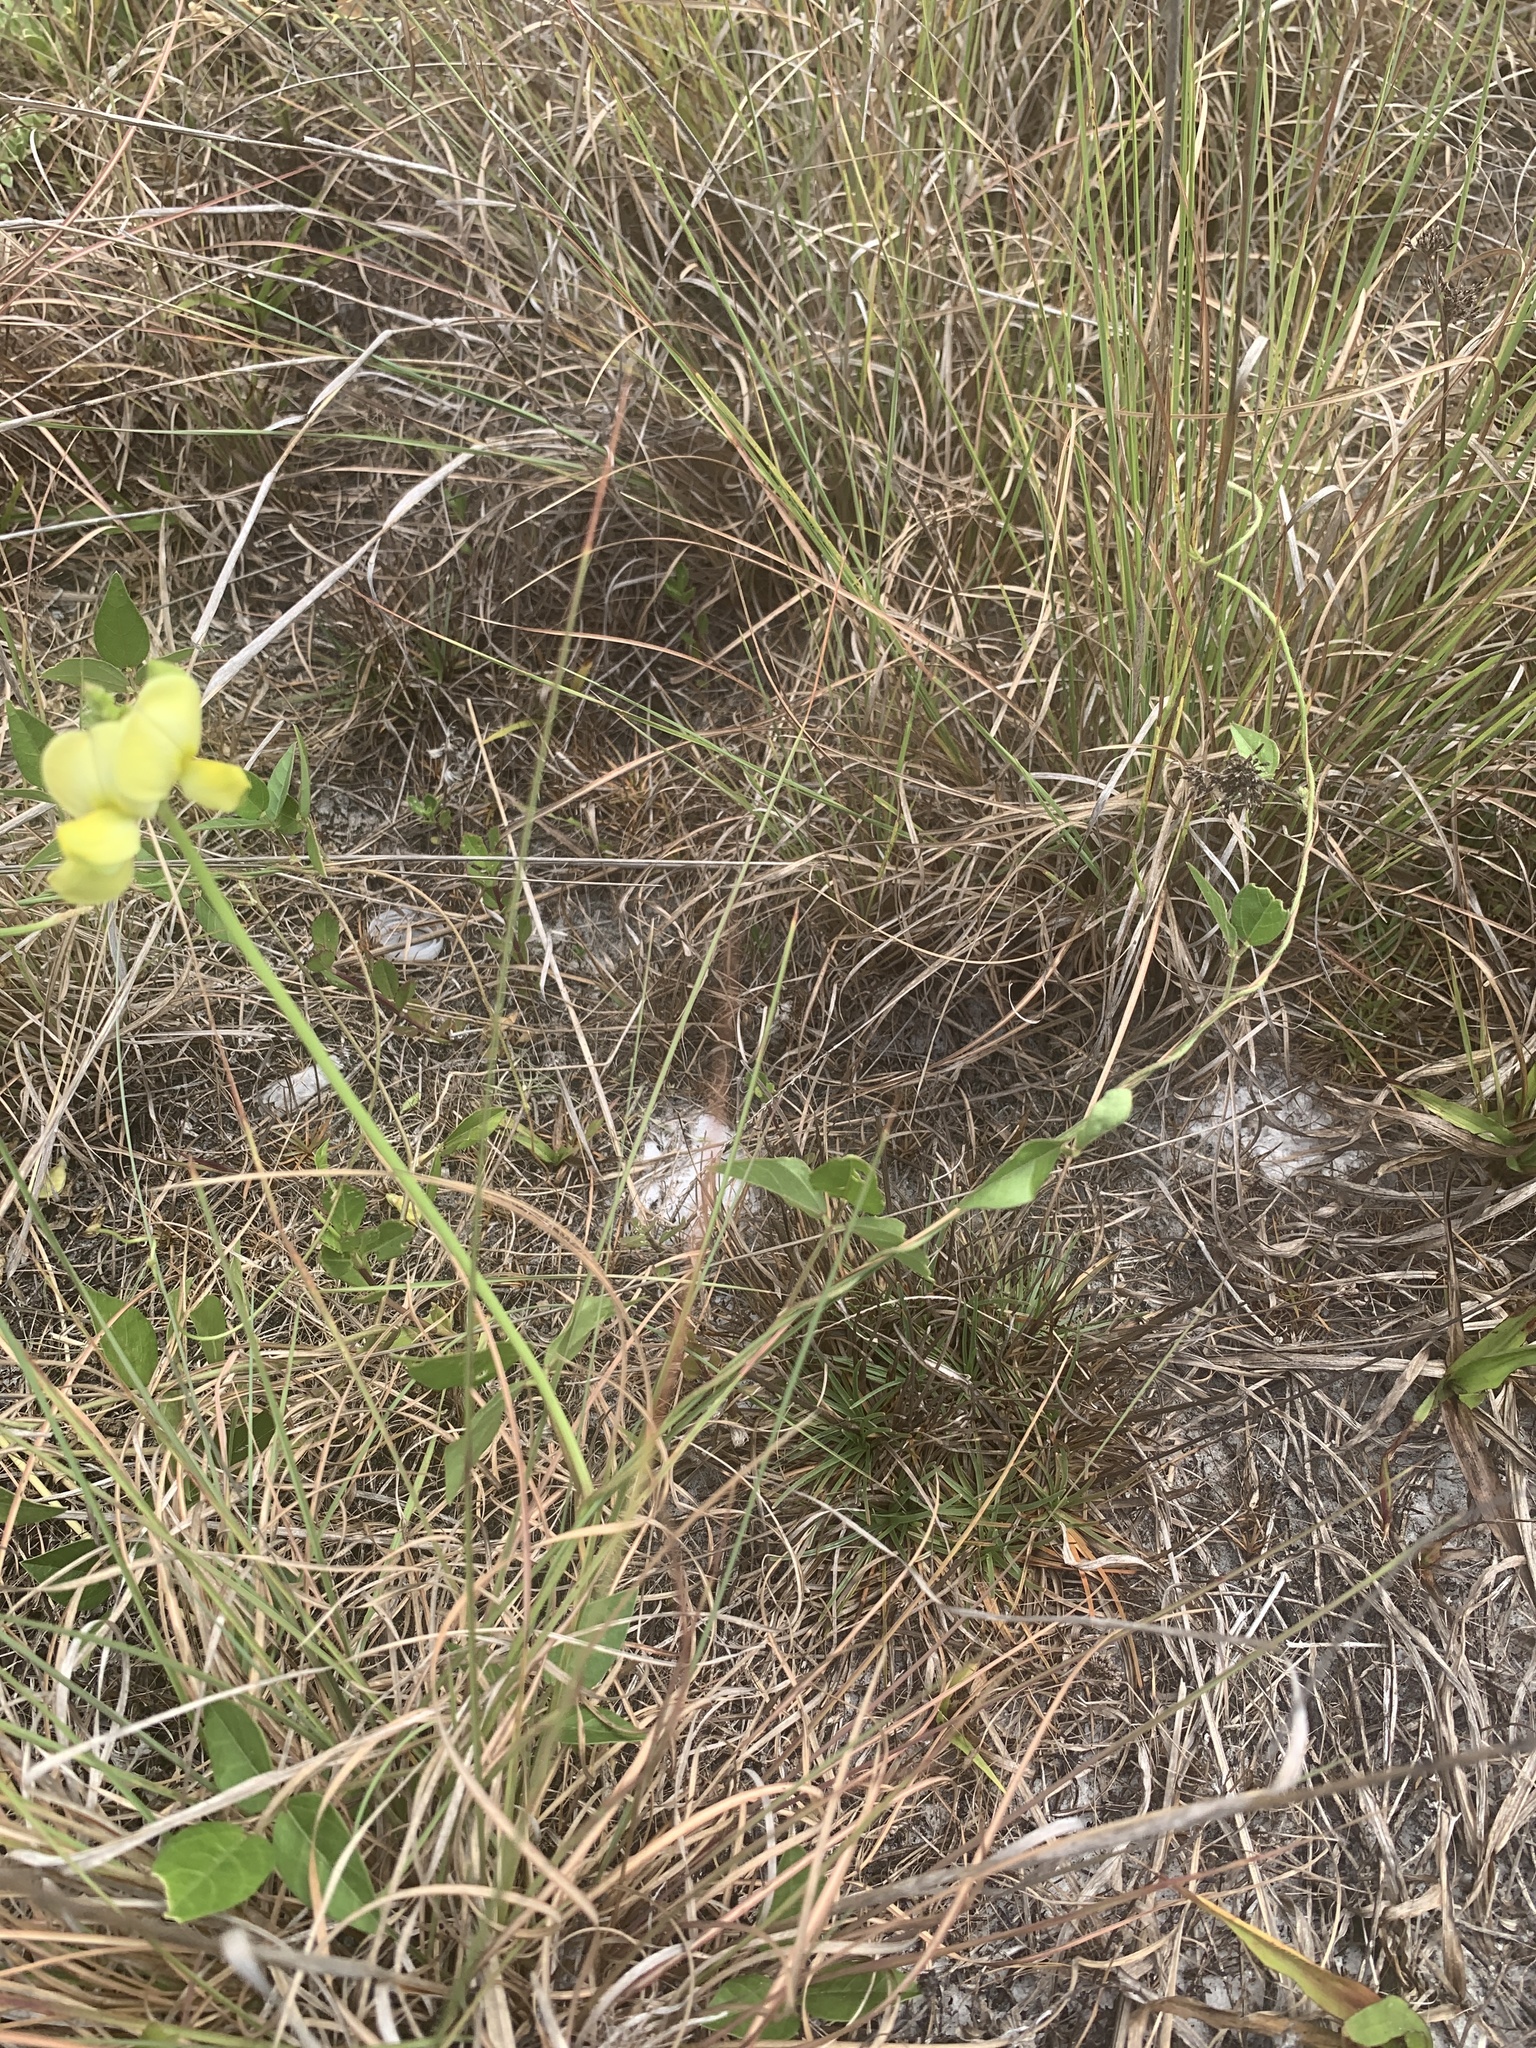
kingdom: Plantae
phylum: Tracheophyta
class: Magnoliopsida
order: Fabales
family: Fabaceae
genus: Vigna
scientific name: Vigna luteola
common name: Hairypod cowpea
